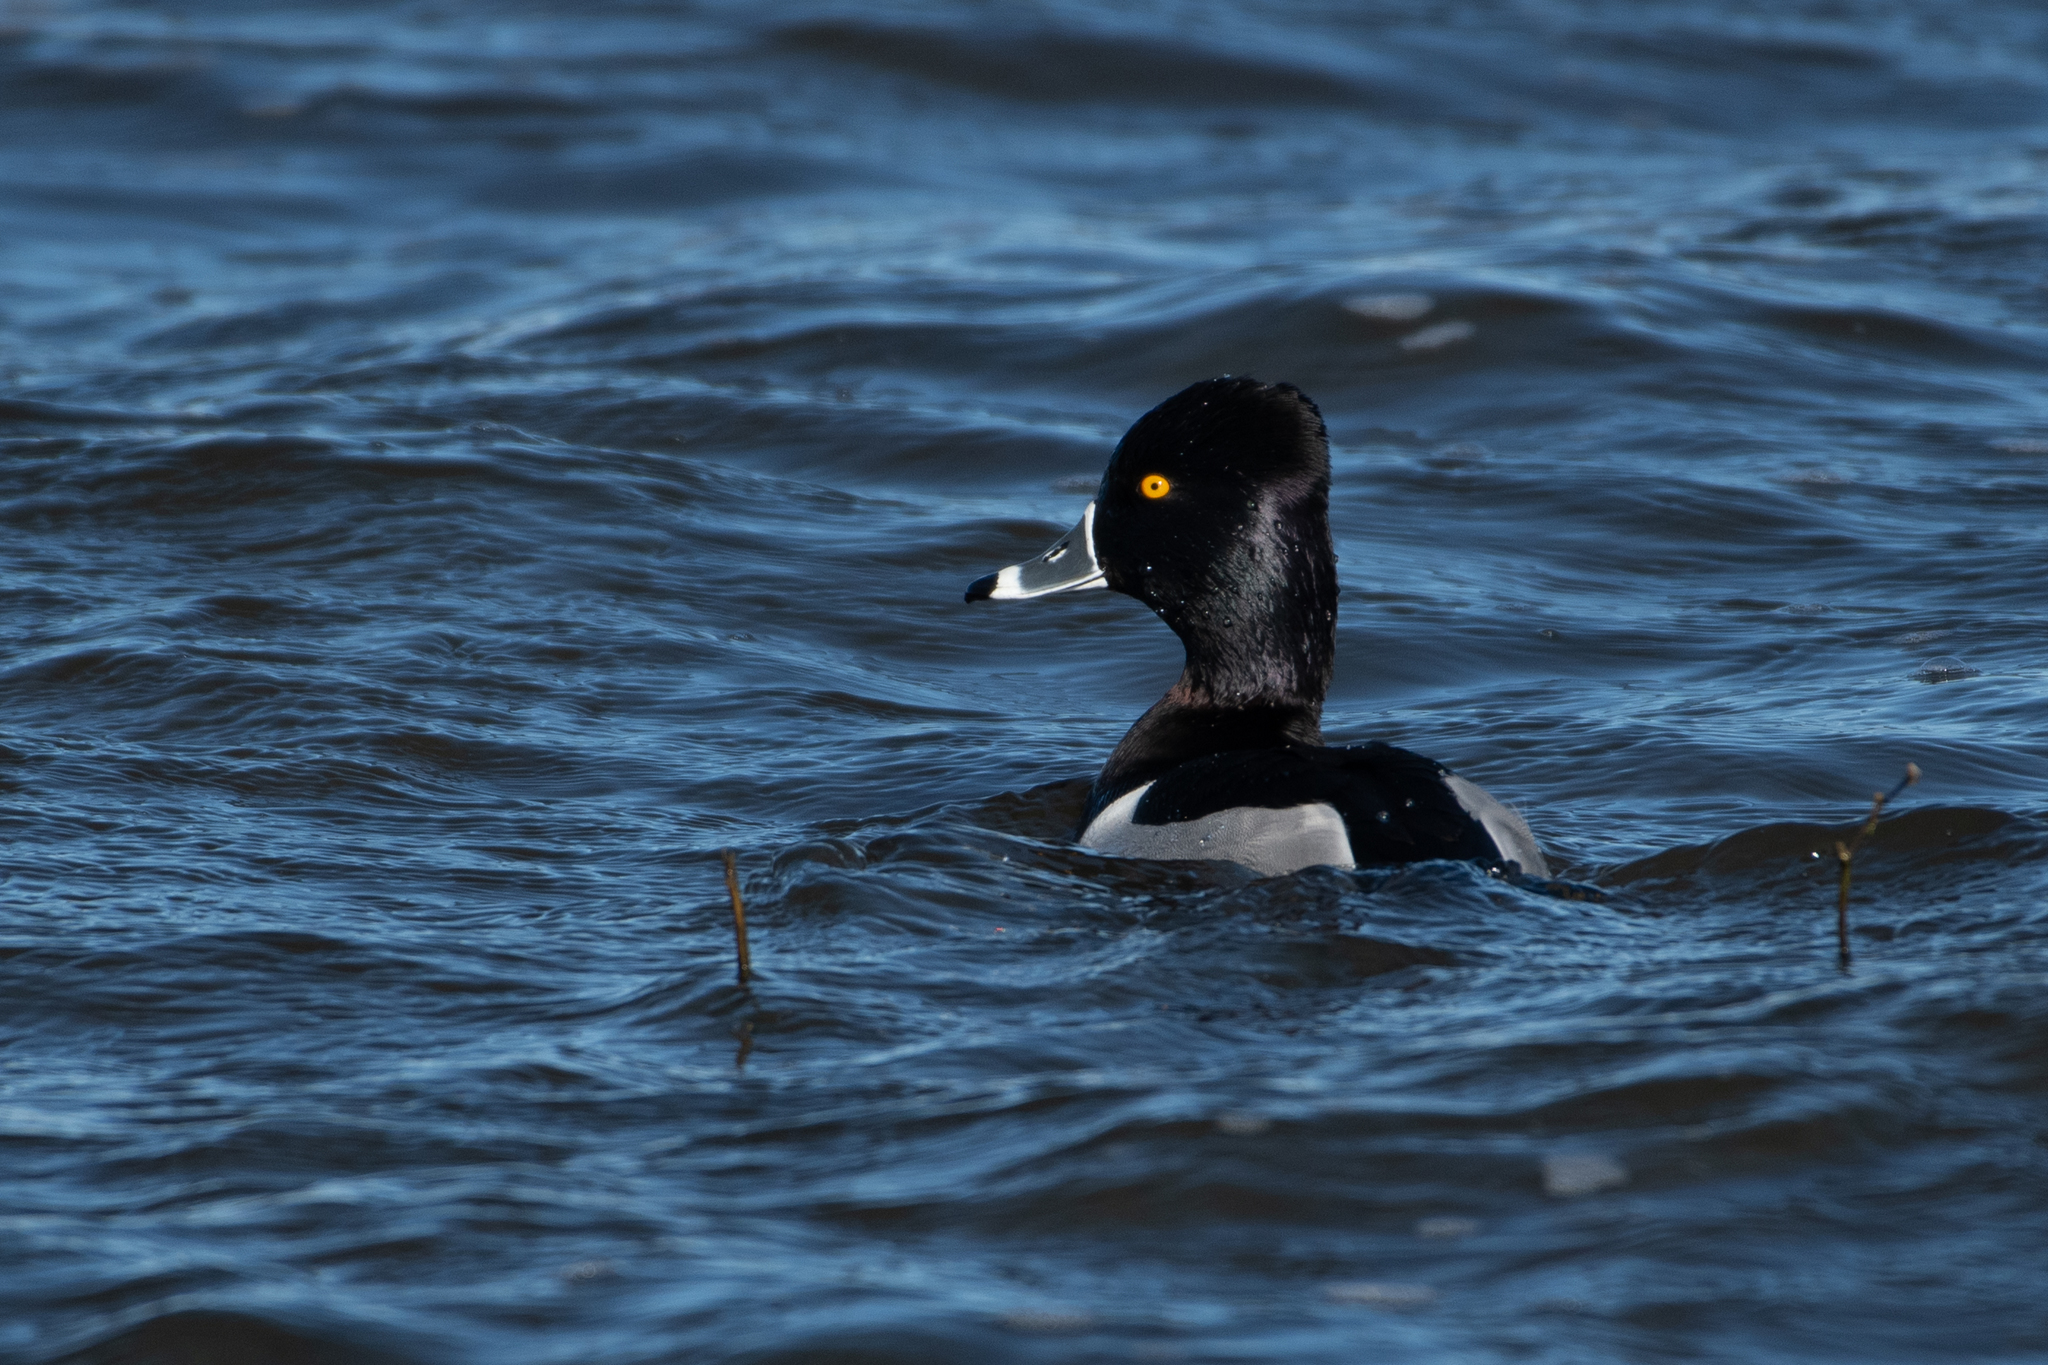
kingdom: Animalia
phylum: Chordata
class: Aves
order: Anseriformes
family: Anatidae
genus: Aythya
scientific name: Aythya collaris
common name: Ring-necked duck
